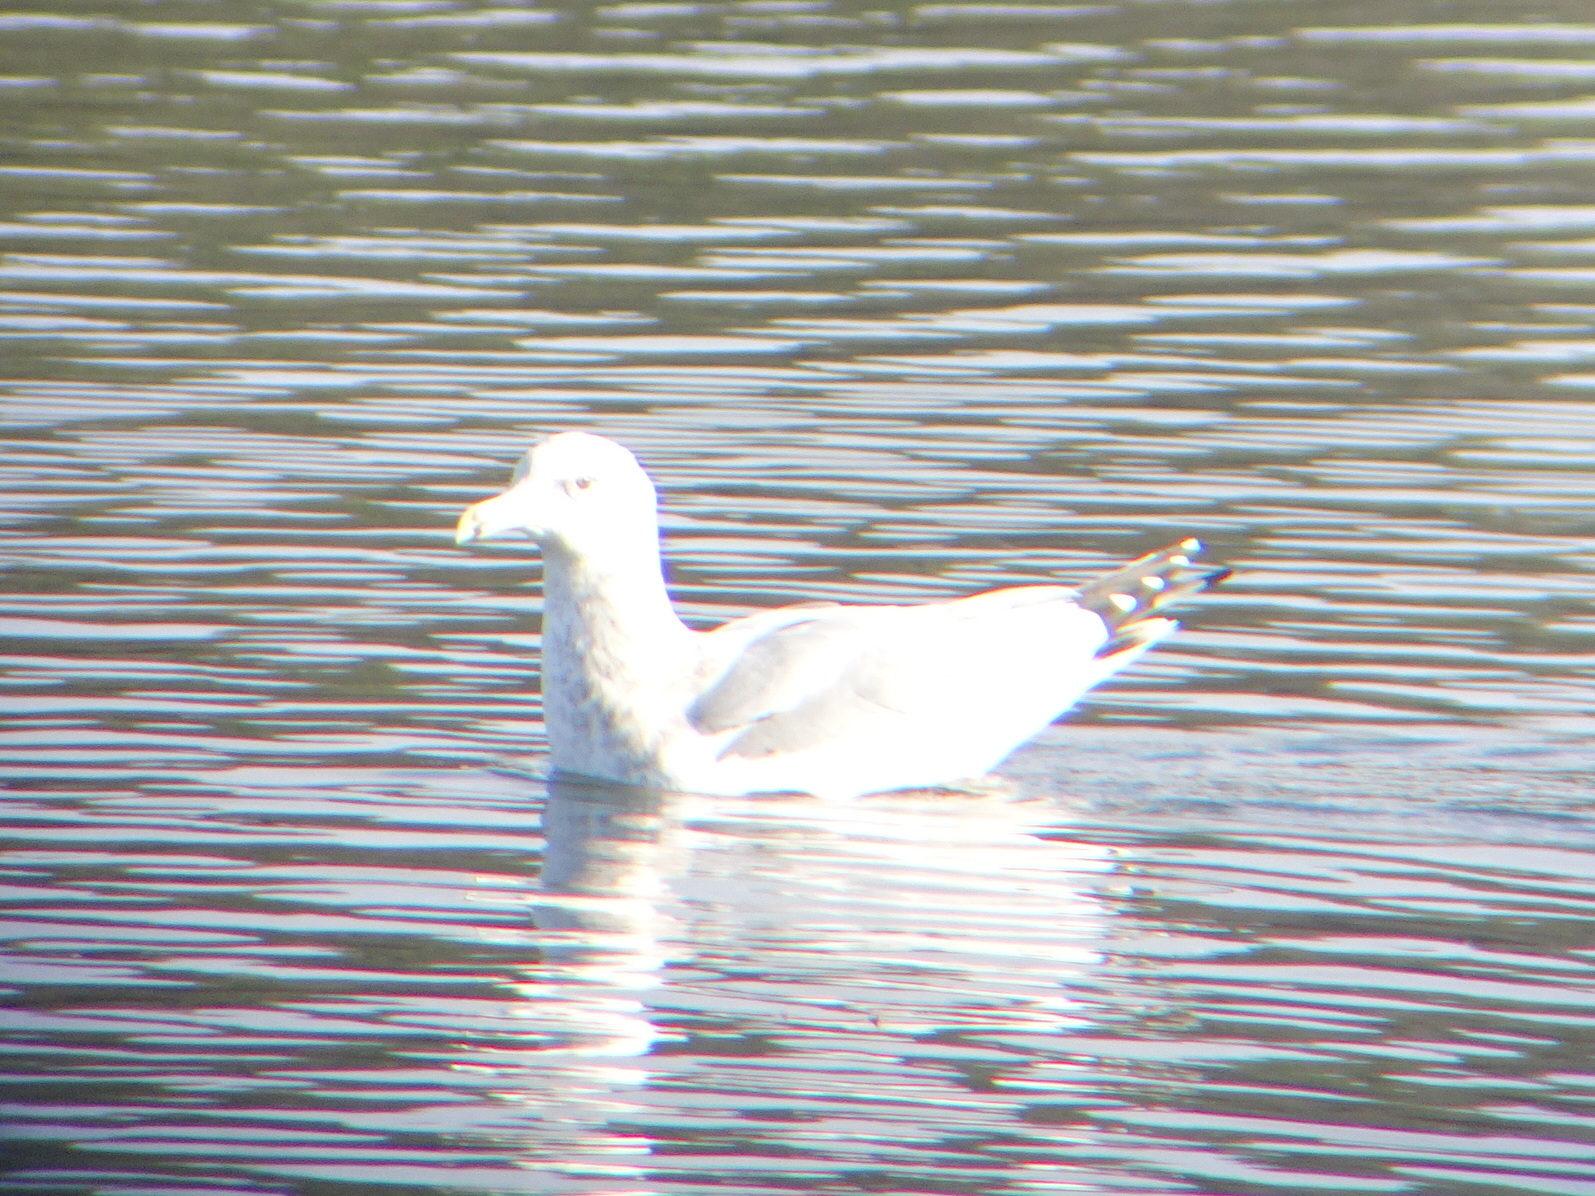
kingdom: Animalia
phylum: Chordata
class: Aves
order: Charadriiformes
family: Laridae
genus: Larus
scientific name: Larus argentatus
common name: Herring gull
